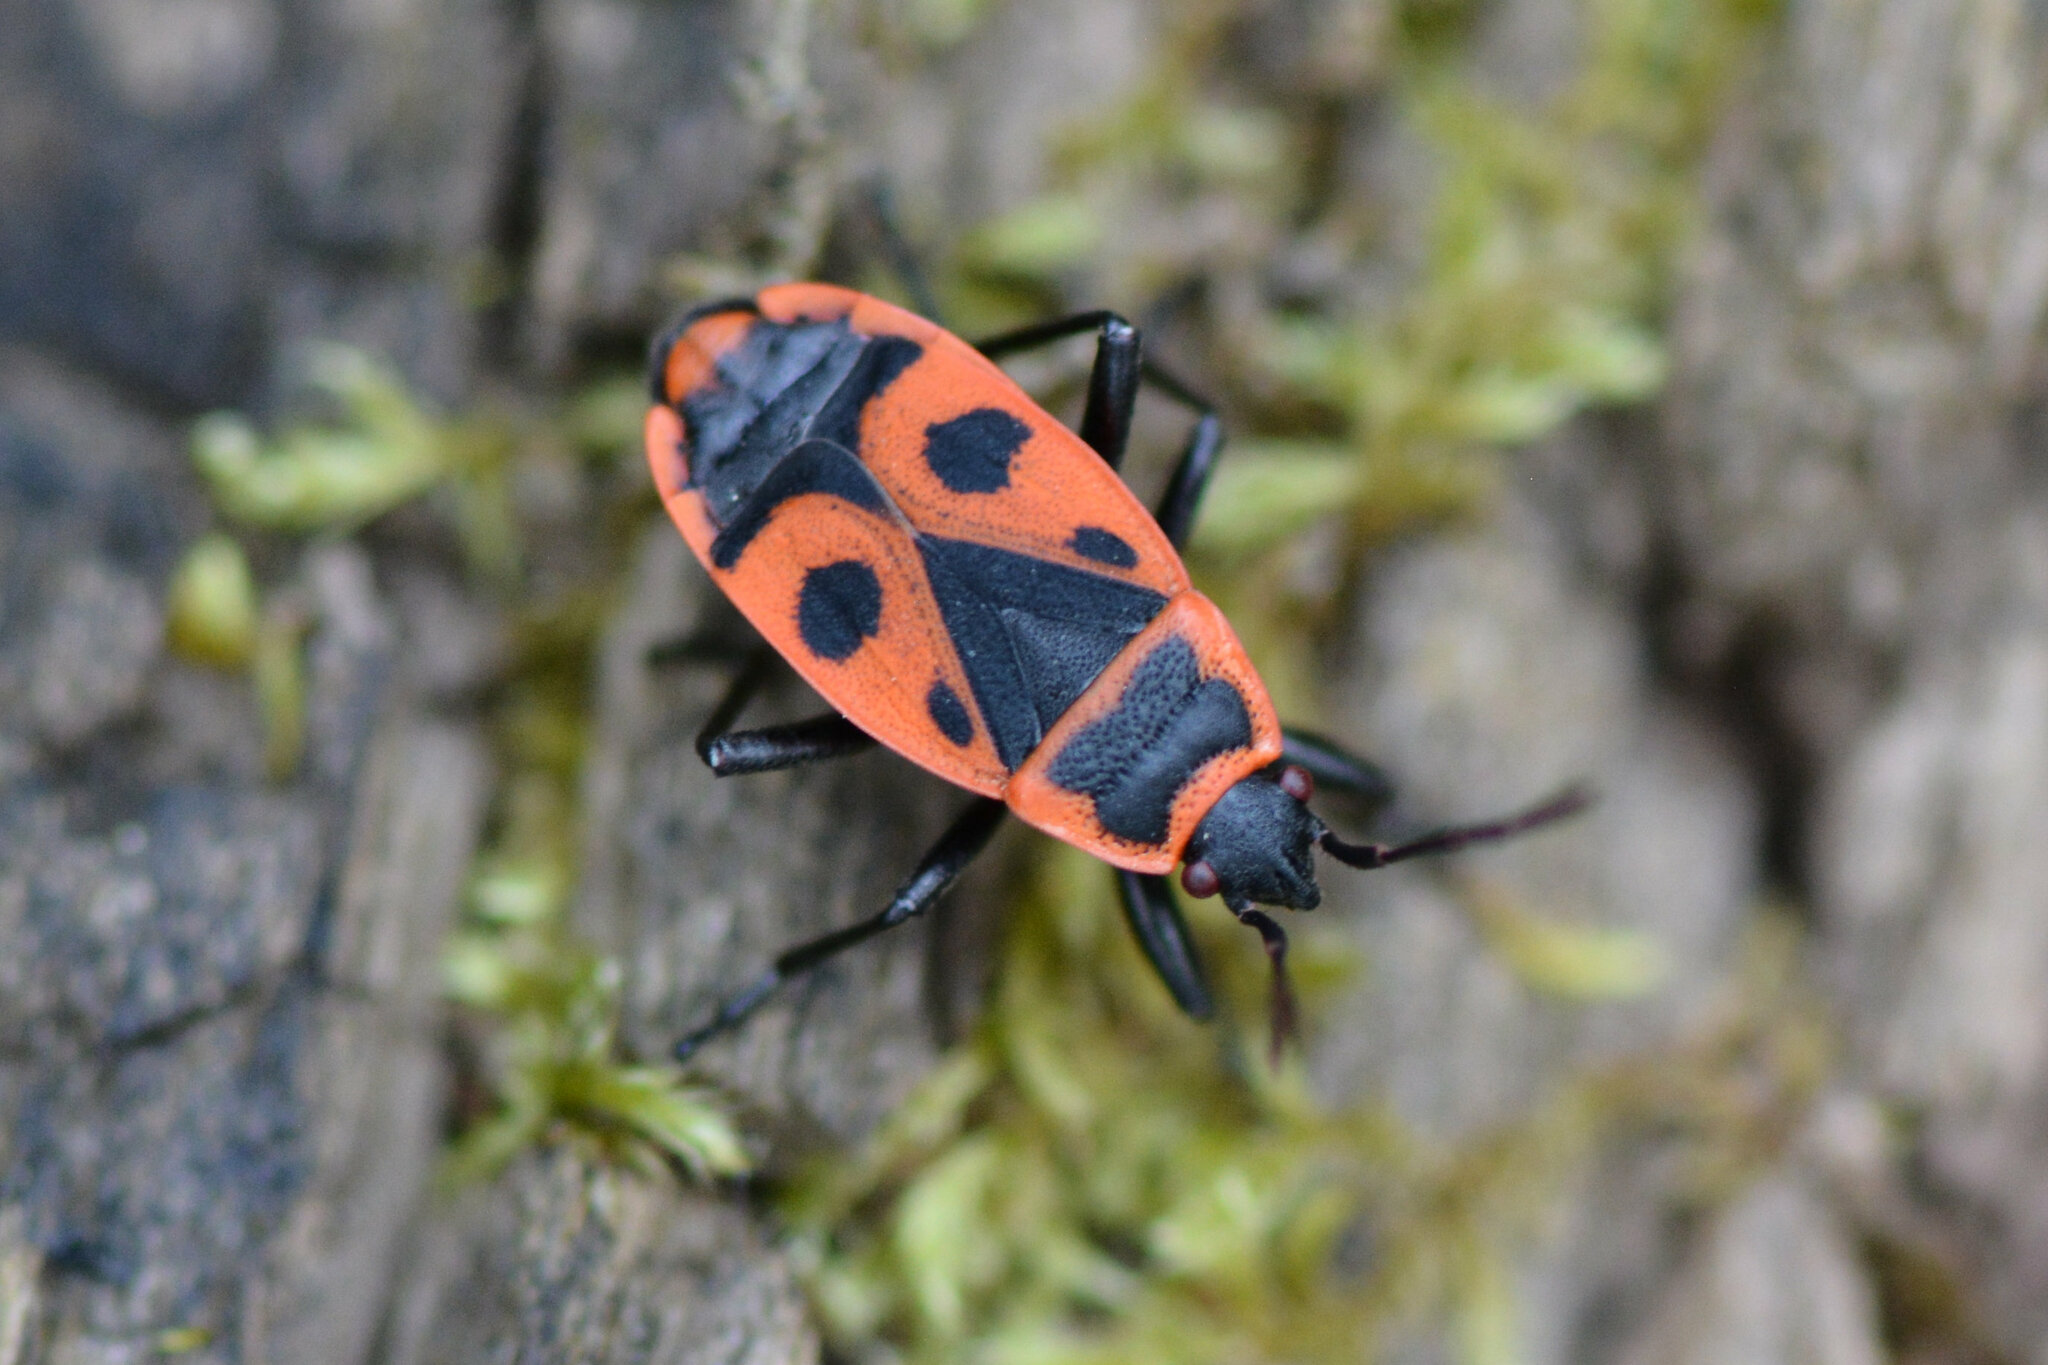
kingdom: Animalia
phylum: Arthropoda
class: Insecta
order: Hemiptera
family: Pyrrhocoridae
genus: Pyrrhocoris
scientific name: Pyrrhocoris apterus
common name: Firebug
